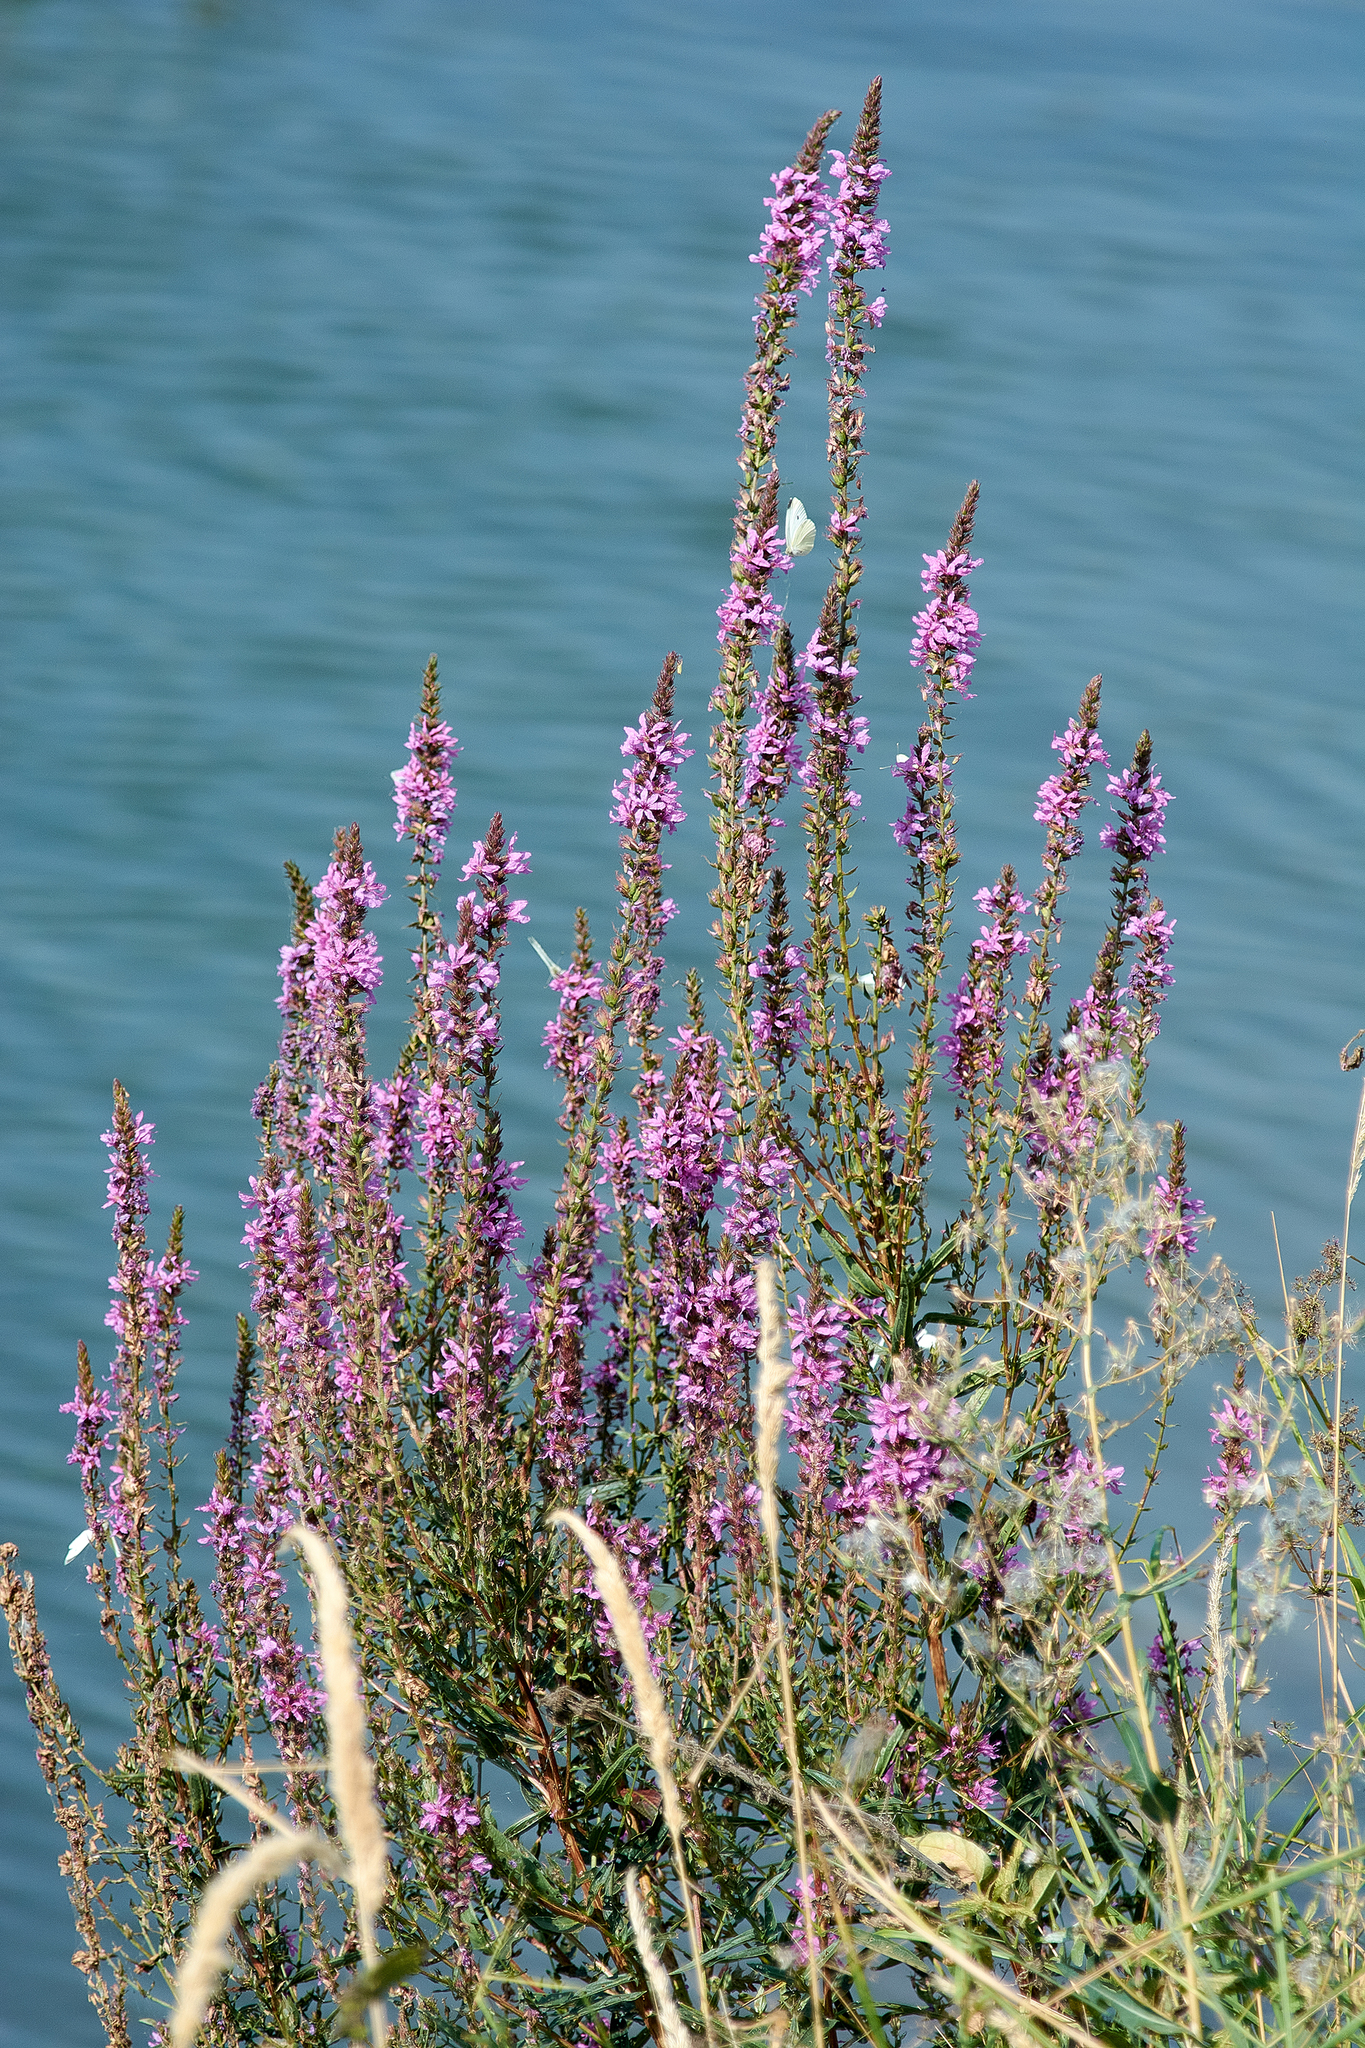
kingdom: Plantae
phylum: Tracheophyta
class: Magnoliopsida
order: Myrtales
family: Lythraceae
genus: Lythrum
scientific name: Lythrum salicaria
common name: Purple loosestrife
